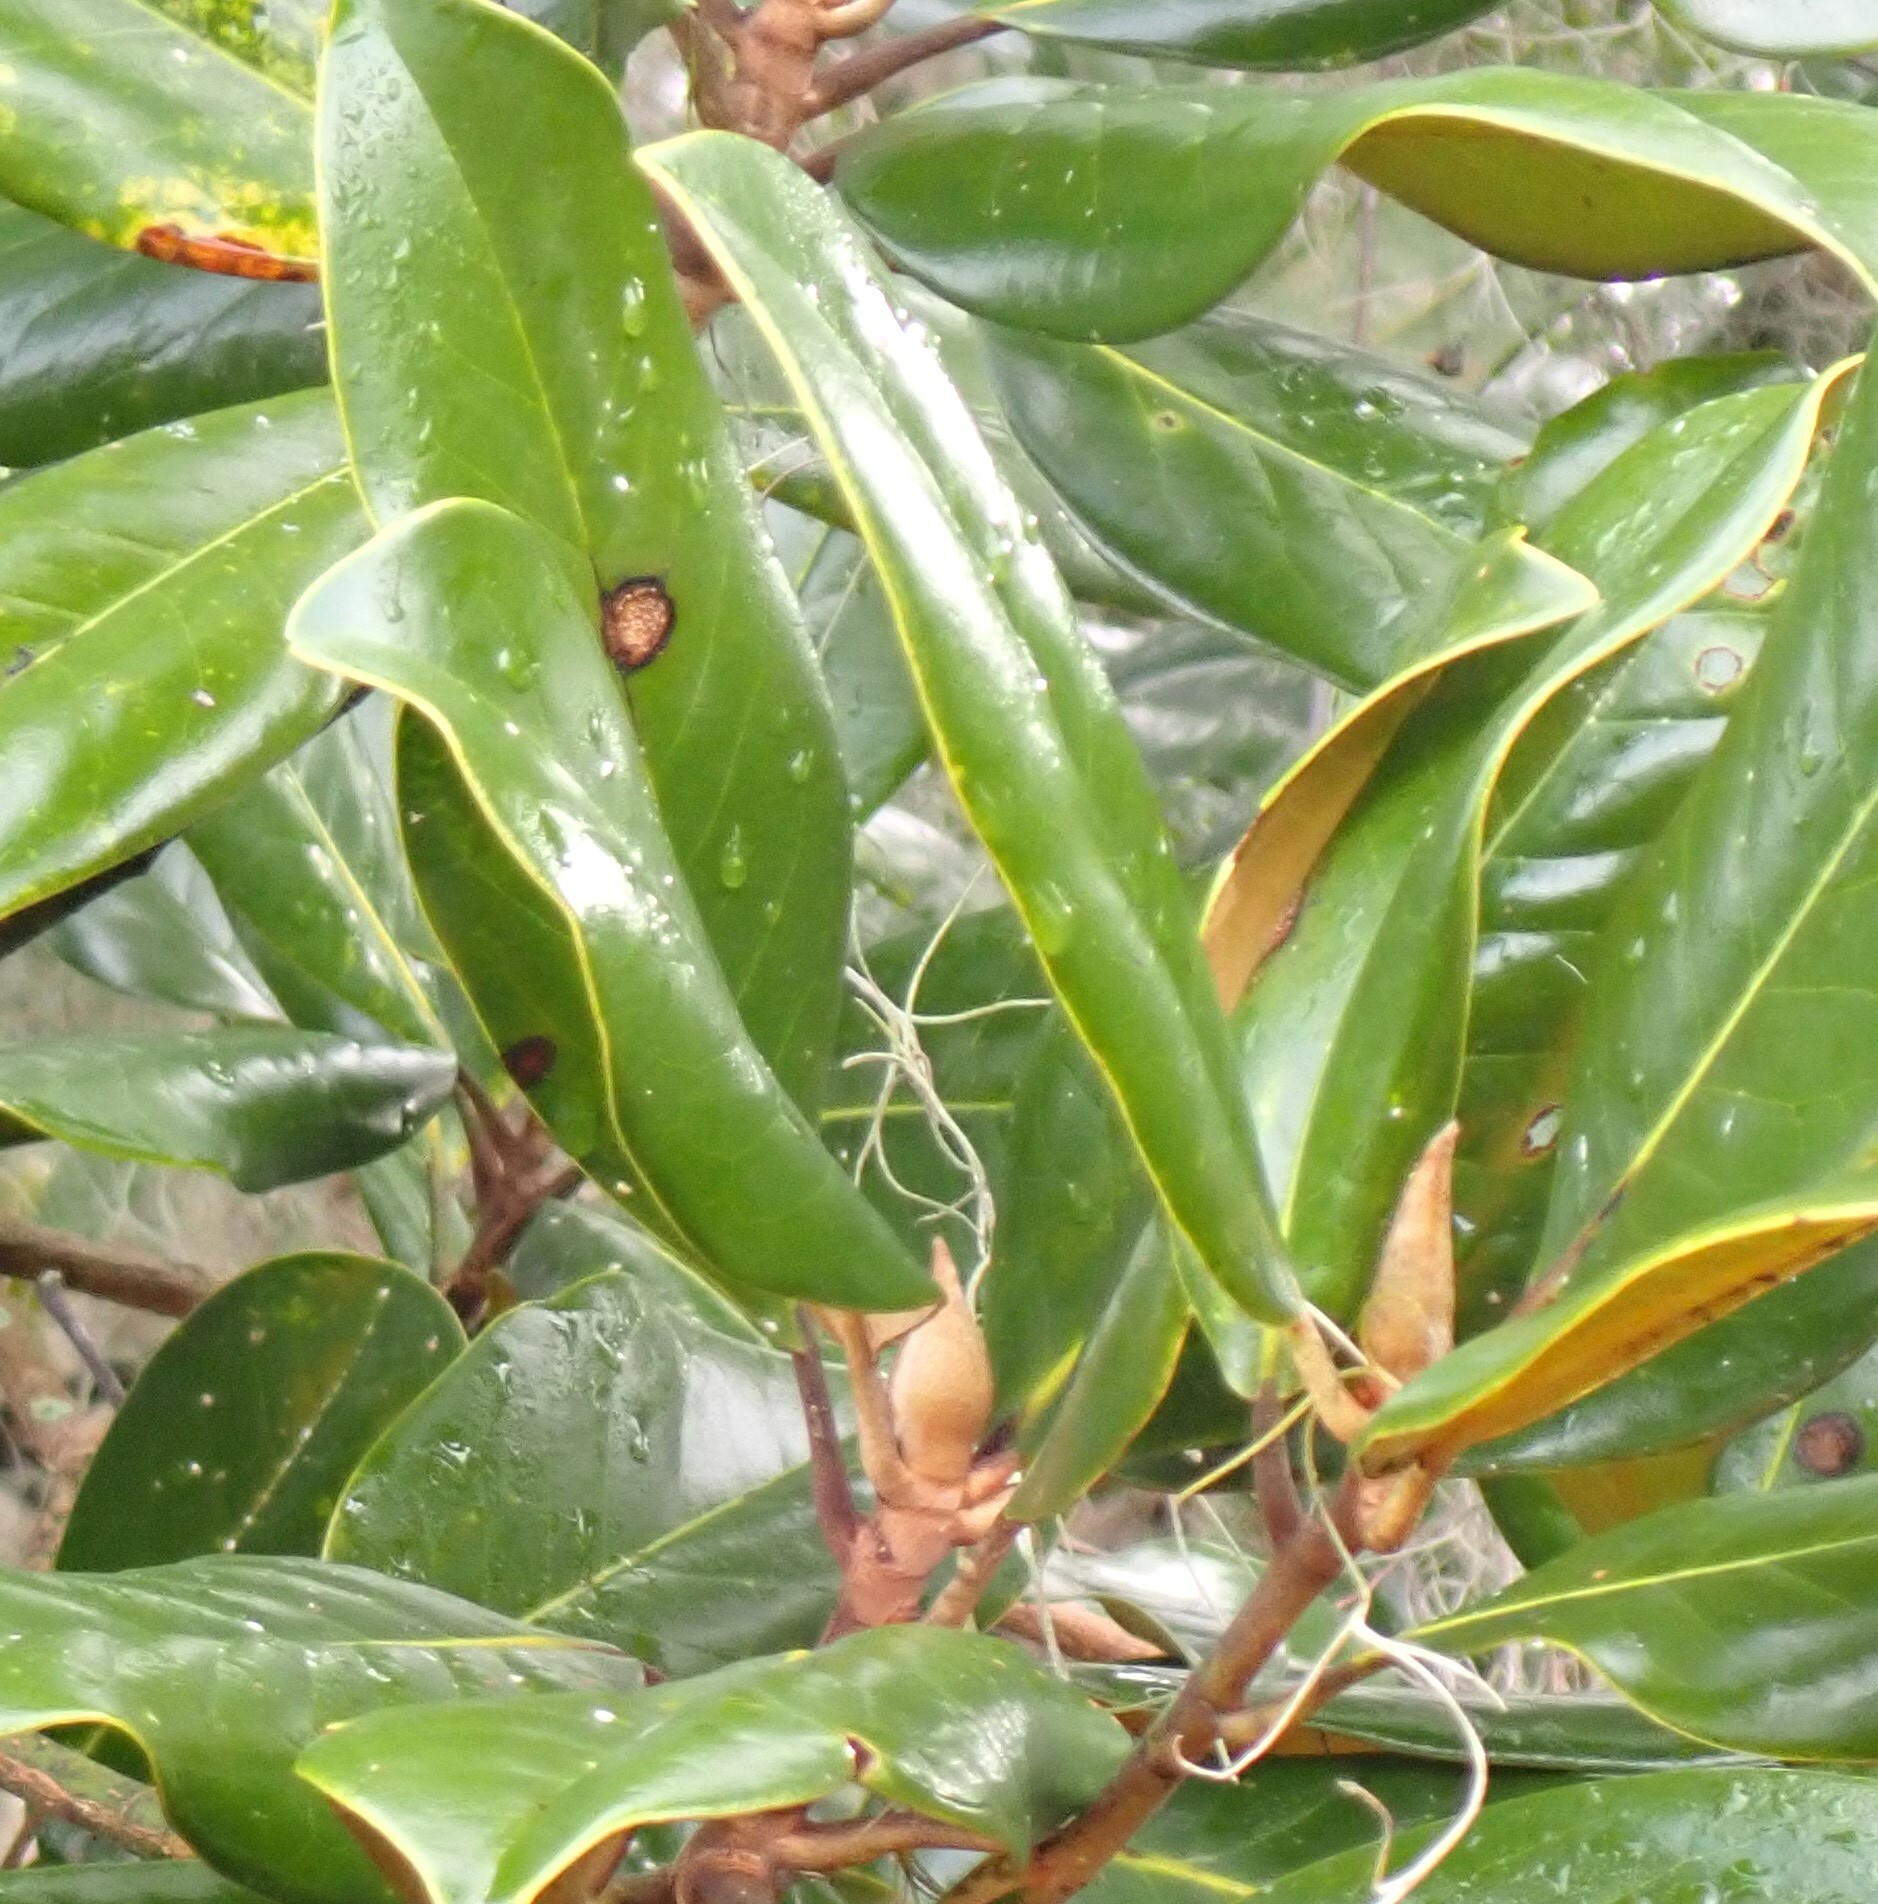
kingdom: Plantae
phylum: Tracheophyta
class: Magnoliopsida
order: Magnoliales
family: Magnoliaceae
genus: Magnolia
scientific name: Magnolia grandiflora
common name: Southern magnolia
